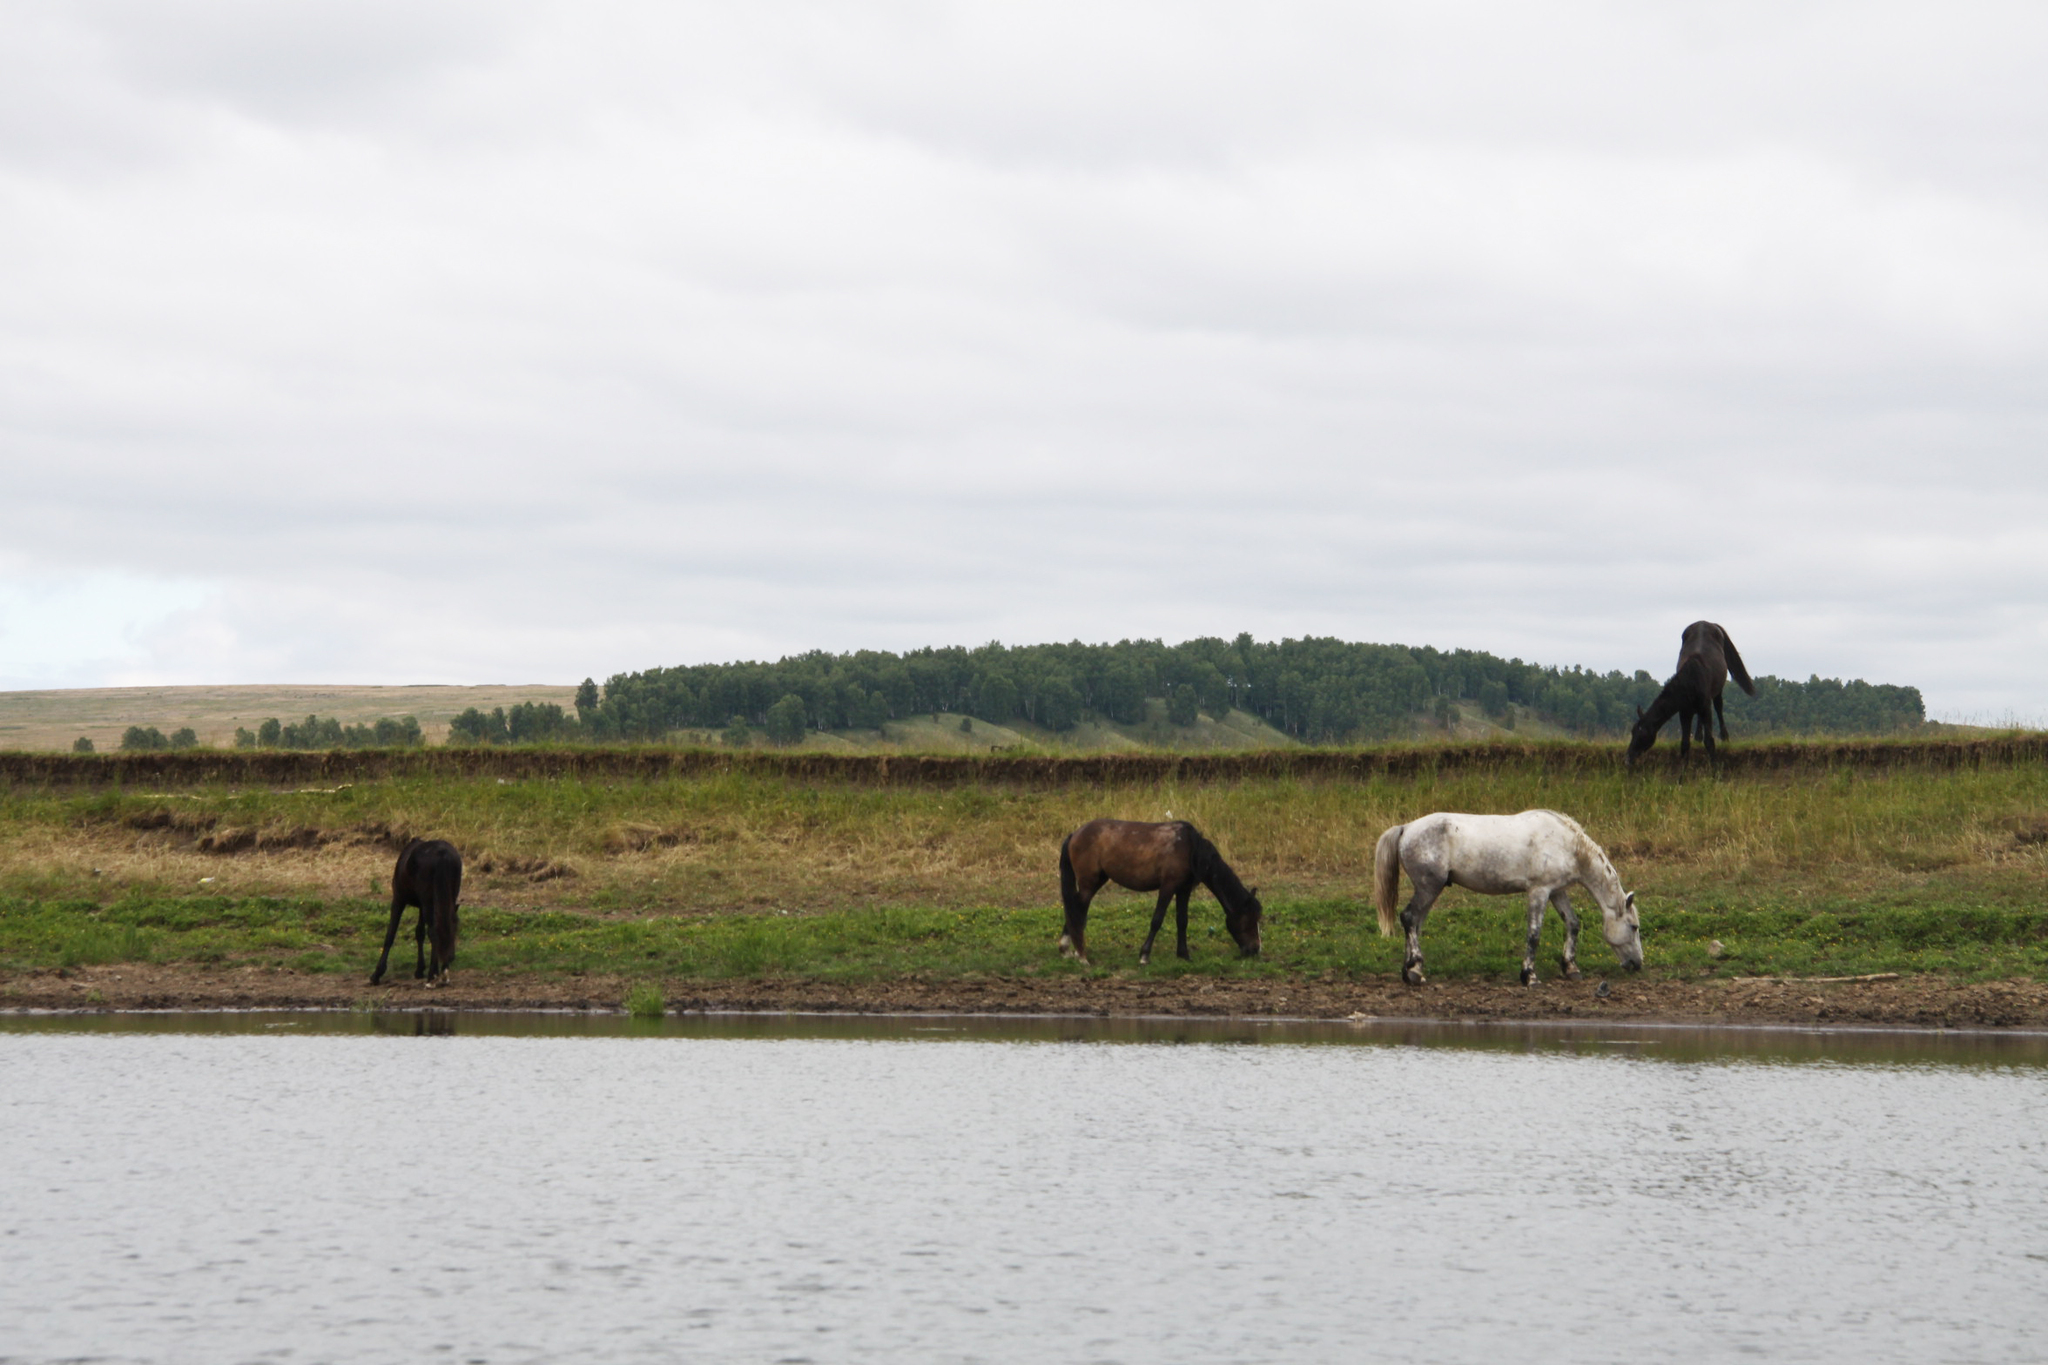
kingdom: Animalia
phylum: Chordata
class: Mammalia
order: Perissodactyla
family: Equidae
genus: Equus
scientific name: Equus caballus
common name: Horse
